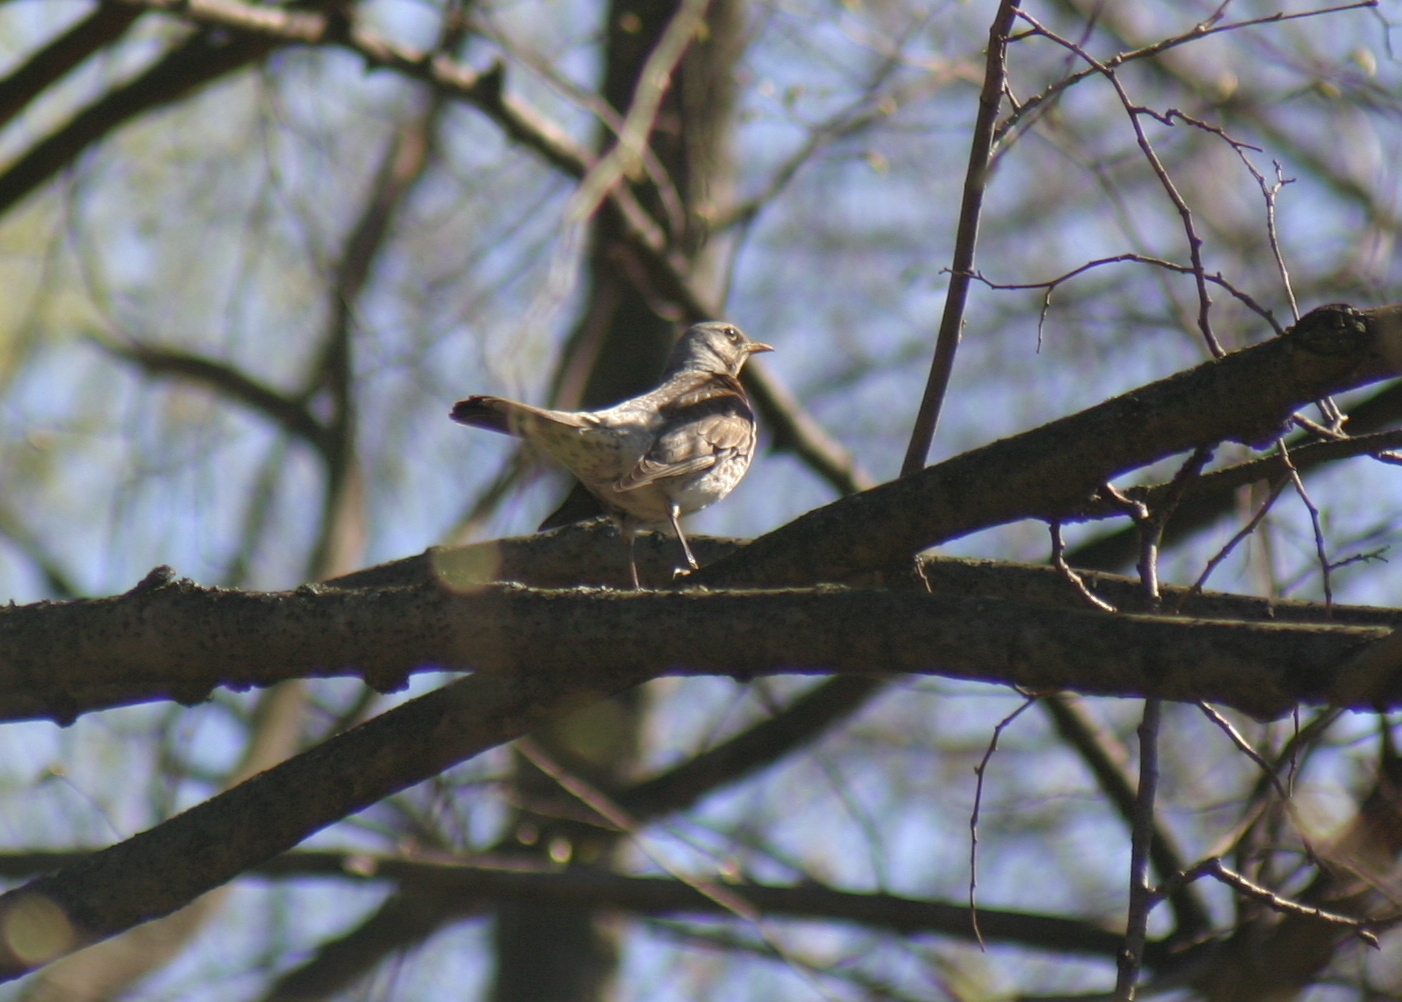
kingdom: Animalia
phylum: Chordata
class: Aves
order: Passeriformes
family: Turdidae
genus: Turdus
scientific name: Turdus pilaris
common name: Fieldfare
